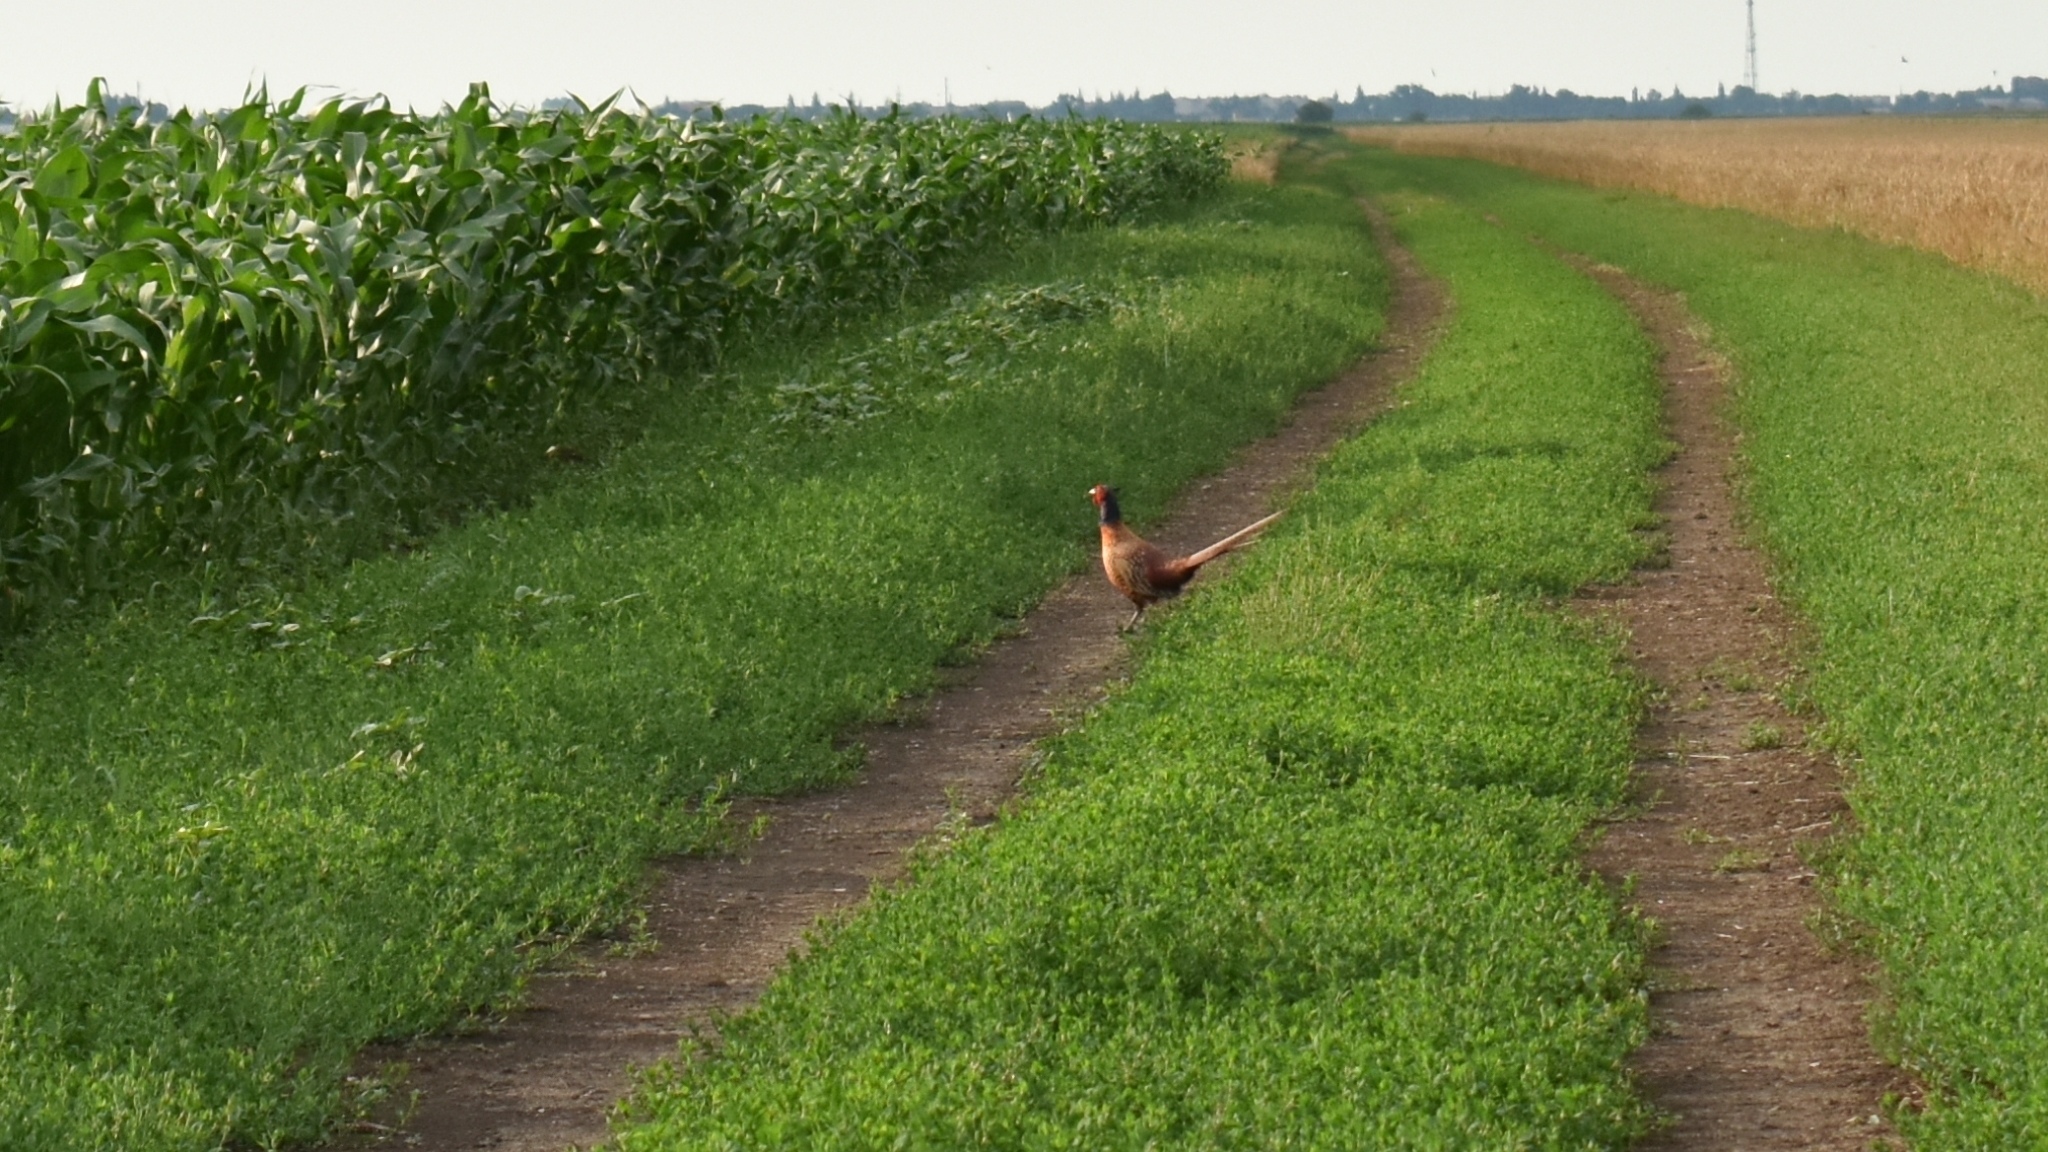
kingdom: Animalia
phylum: Chordata
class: Aves
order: Galliformes
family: Phasianidae
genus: Phasianus
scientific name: Phasianus colchicus
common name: Common pheasant
